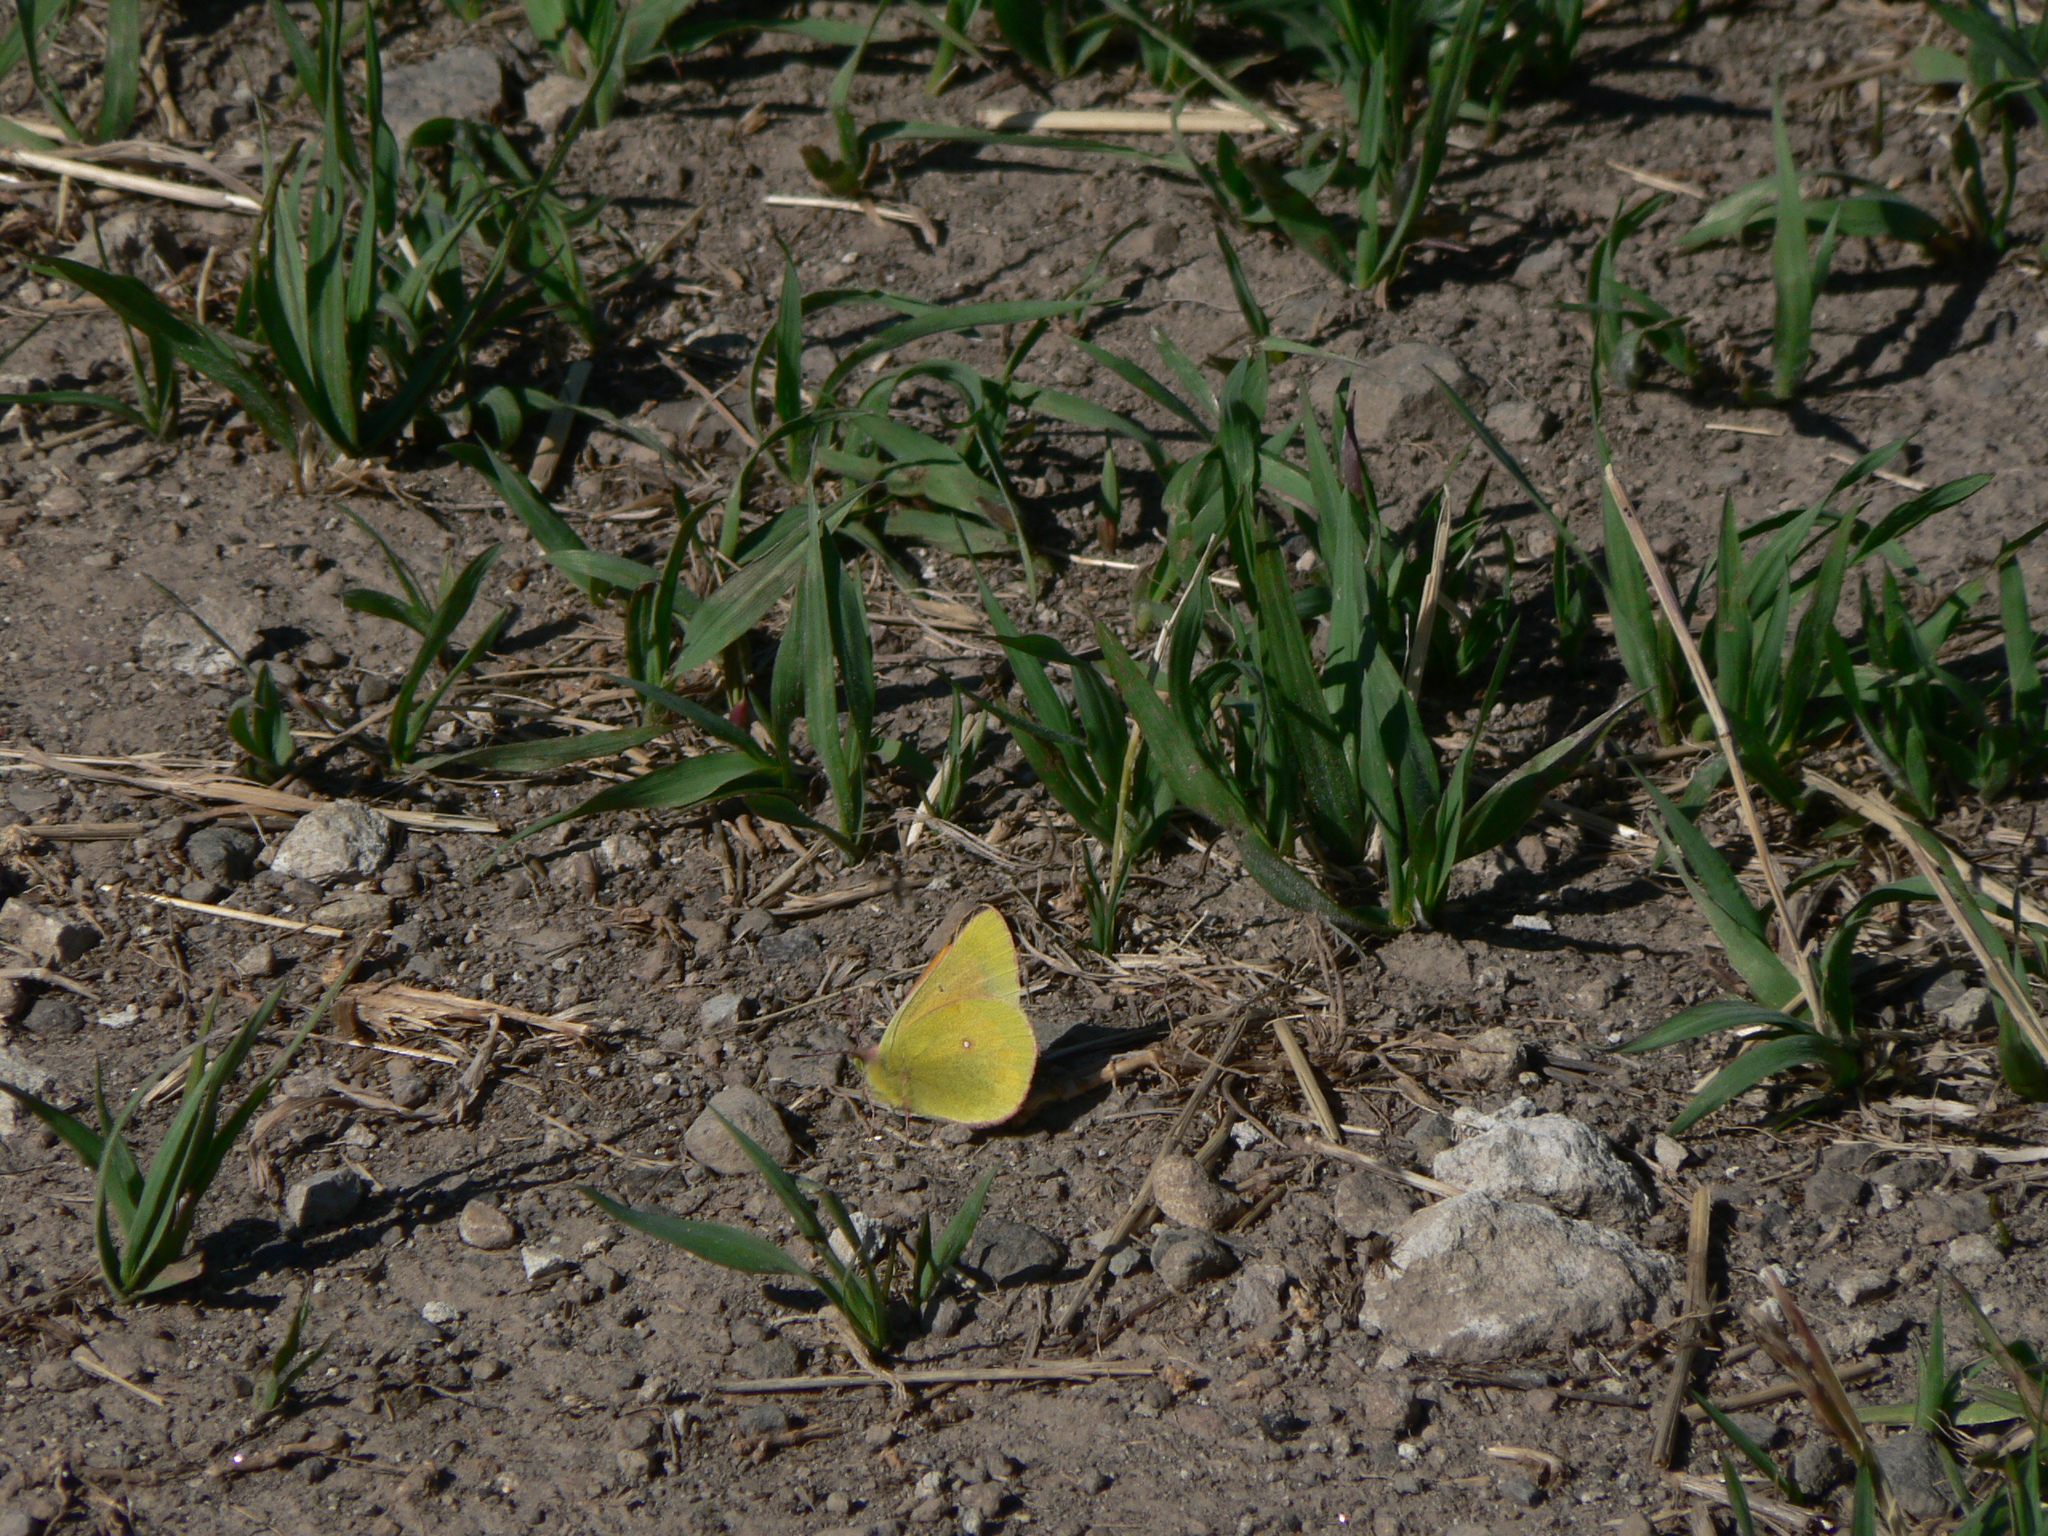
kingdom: Animalia
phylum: Arthropoda
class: Insecta
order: Lepidoptera
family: Pieridae
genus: Colias
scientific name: Colias meadii
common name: Mead's sulphur
